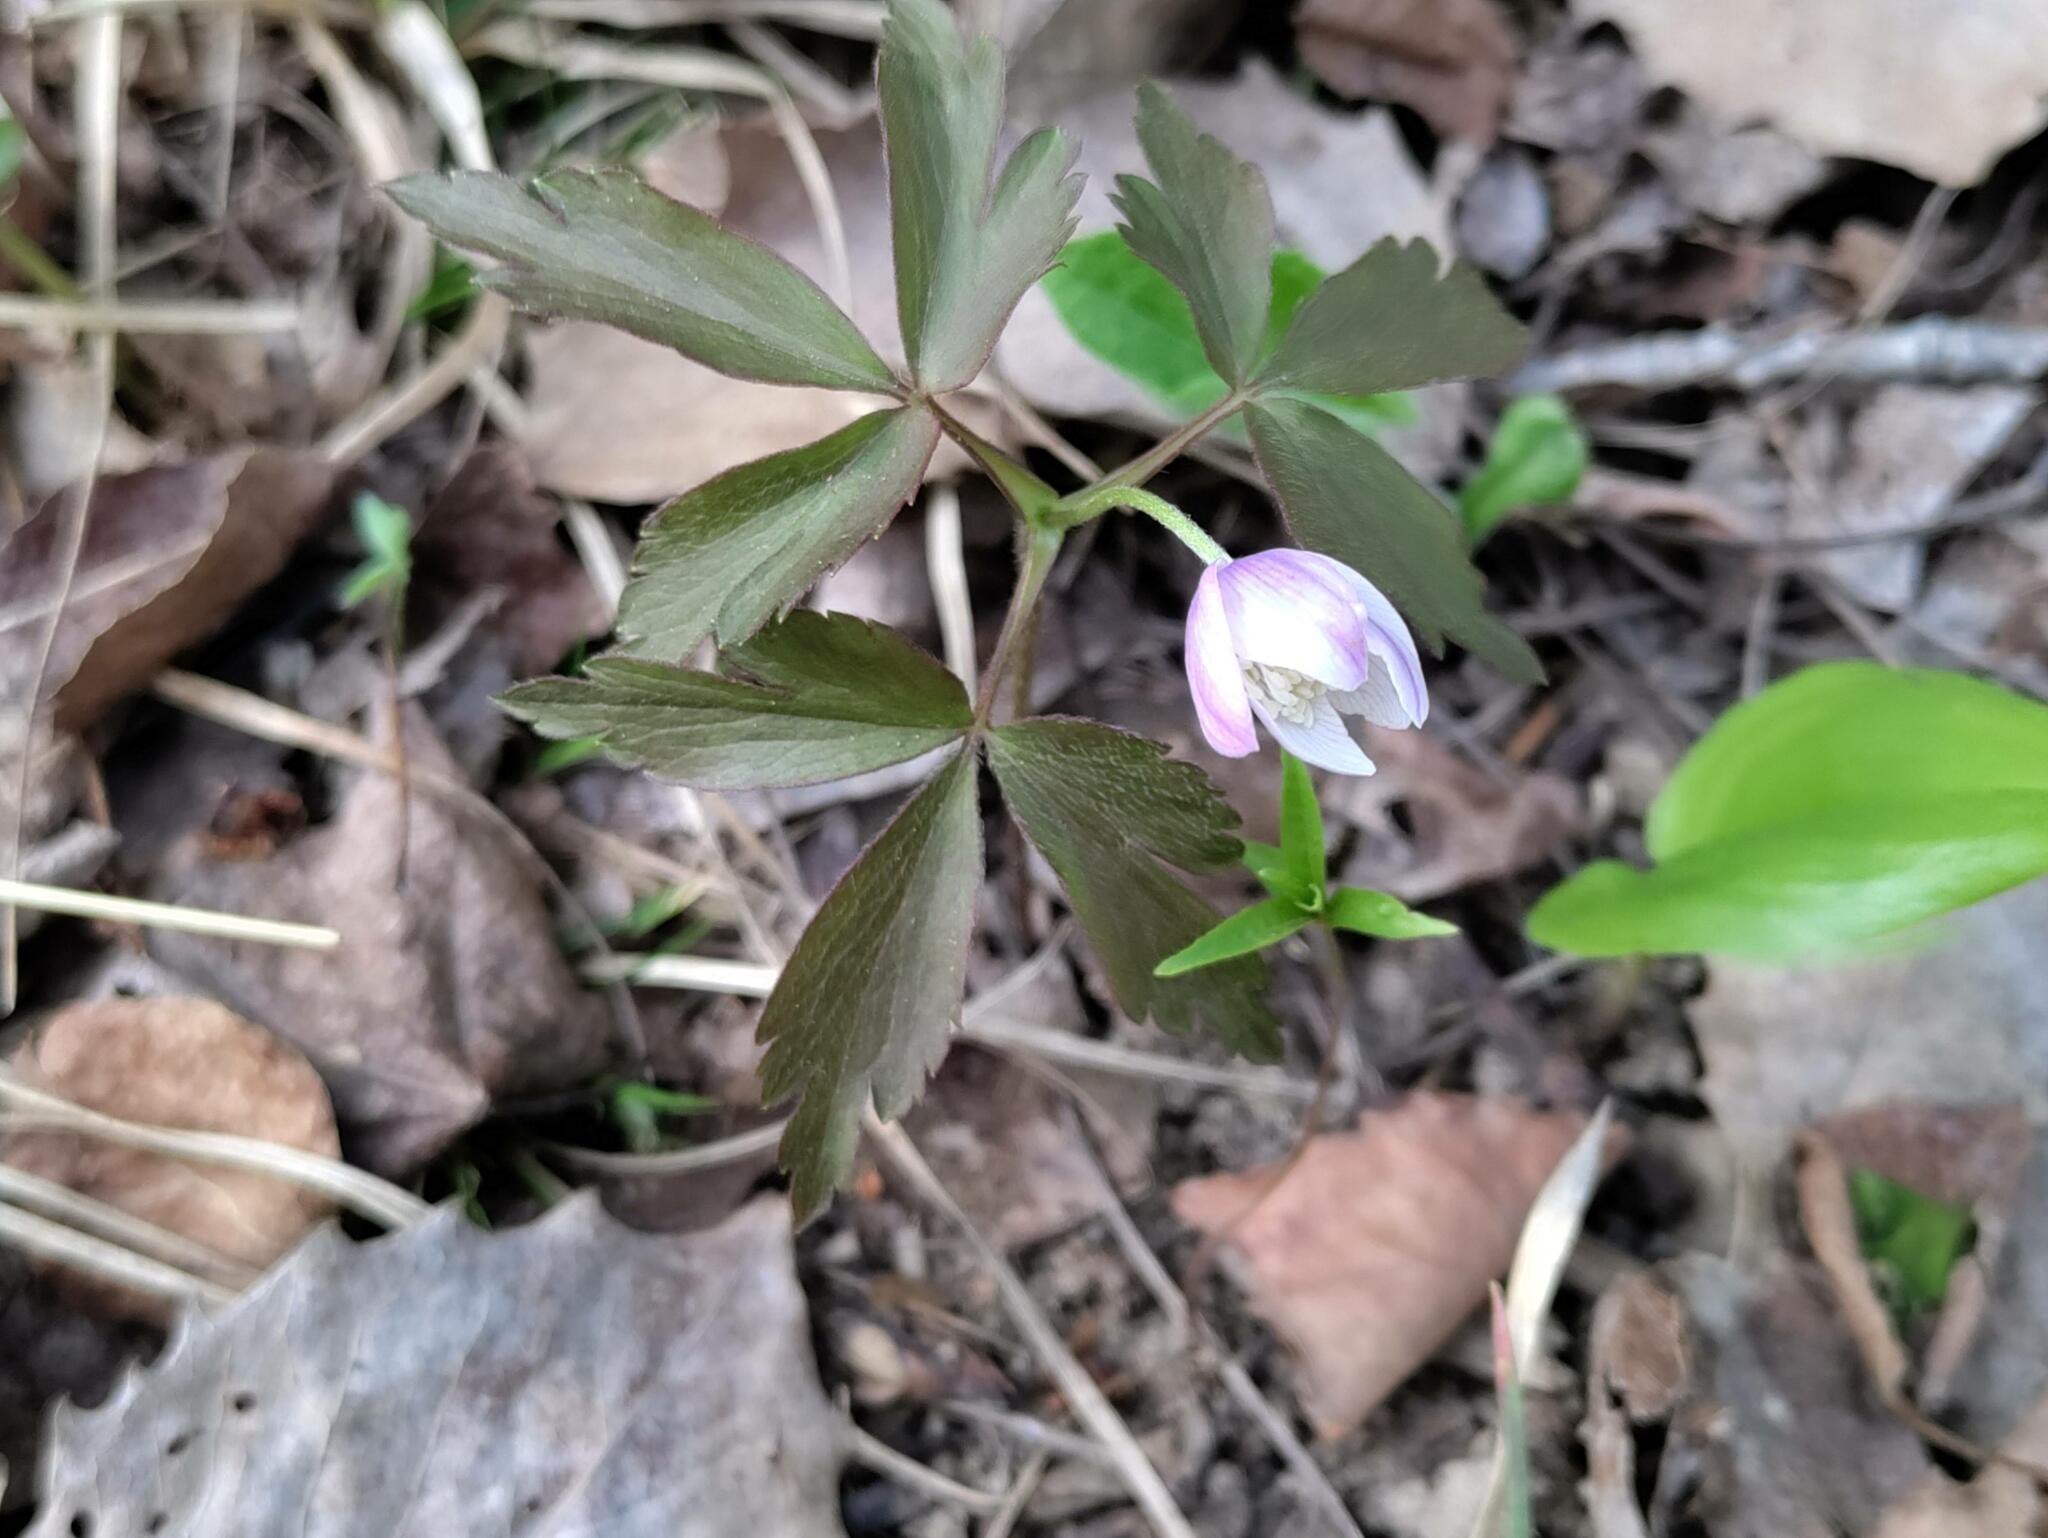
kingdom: Plantae
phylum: Tracheophyta
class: Magnoliopsida
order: Ranunculales
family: Ranunculaceae
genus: Anemone
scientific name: Anemone quinquefolia
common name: Wood anemone
